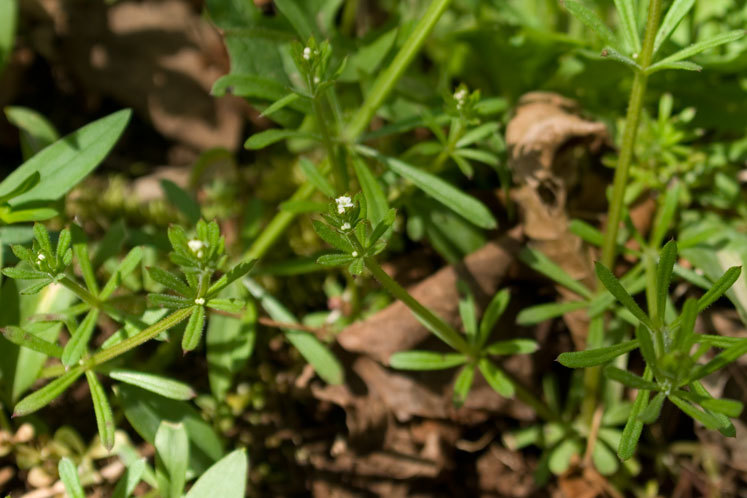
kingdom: Plantae
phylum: Tracheophyta
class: Magnoliopsida
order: Gentianales
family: Rubiaceae
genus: Galium
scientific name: Galium aparine
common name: Cleavers
